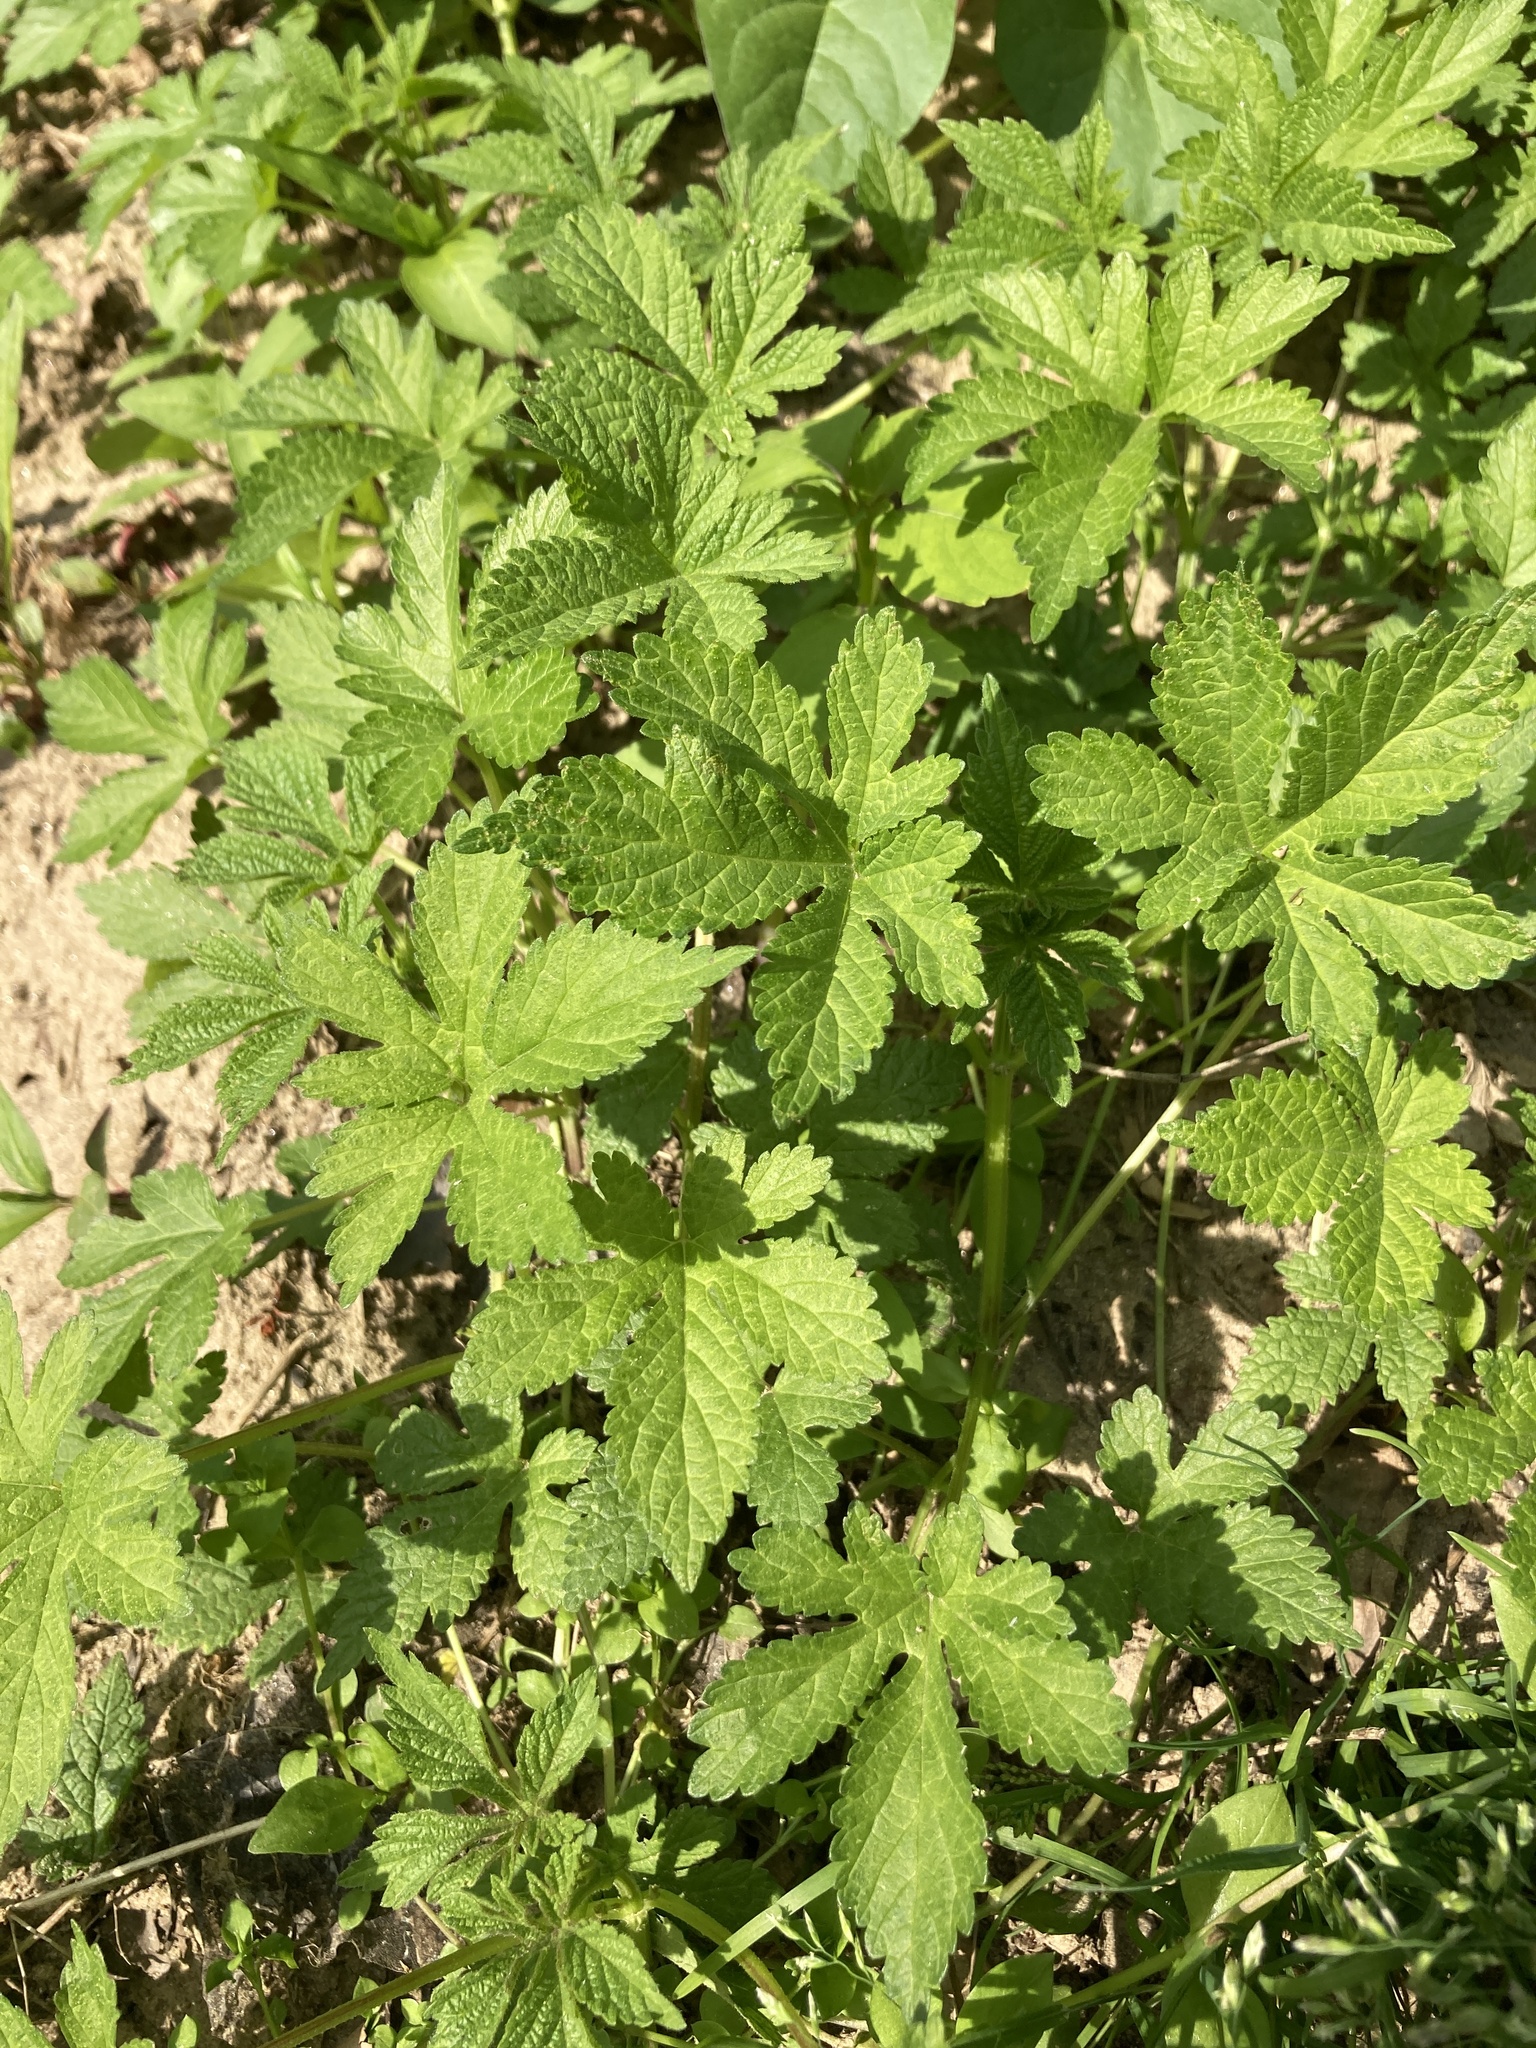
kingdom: Plantae
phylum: Tracheophyta
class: Magnoliopsida
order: Rosales
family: Cannabaceae
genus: Humulus
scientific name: Humulus scandens
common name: Japanese hop
